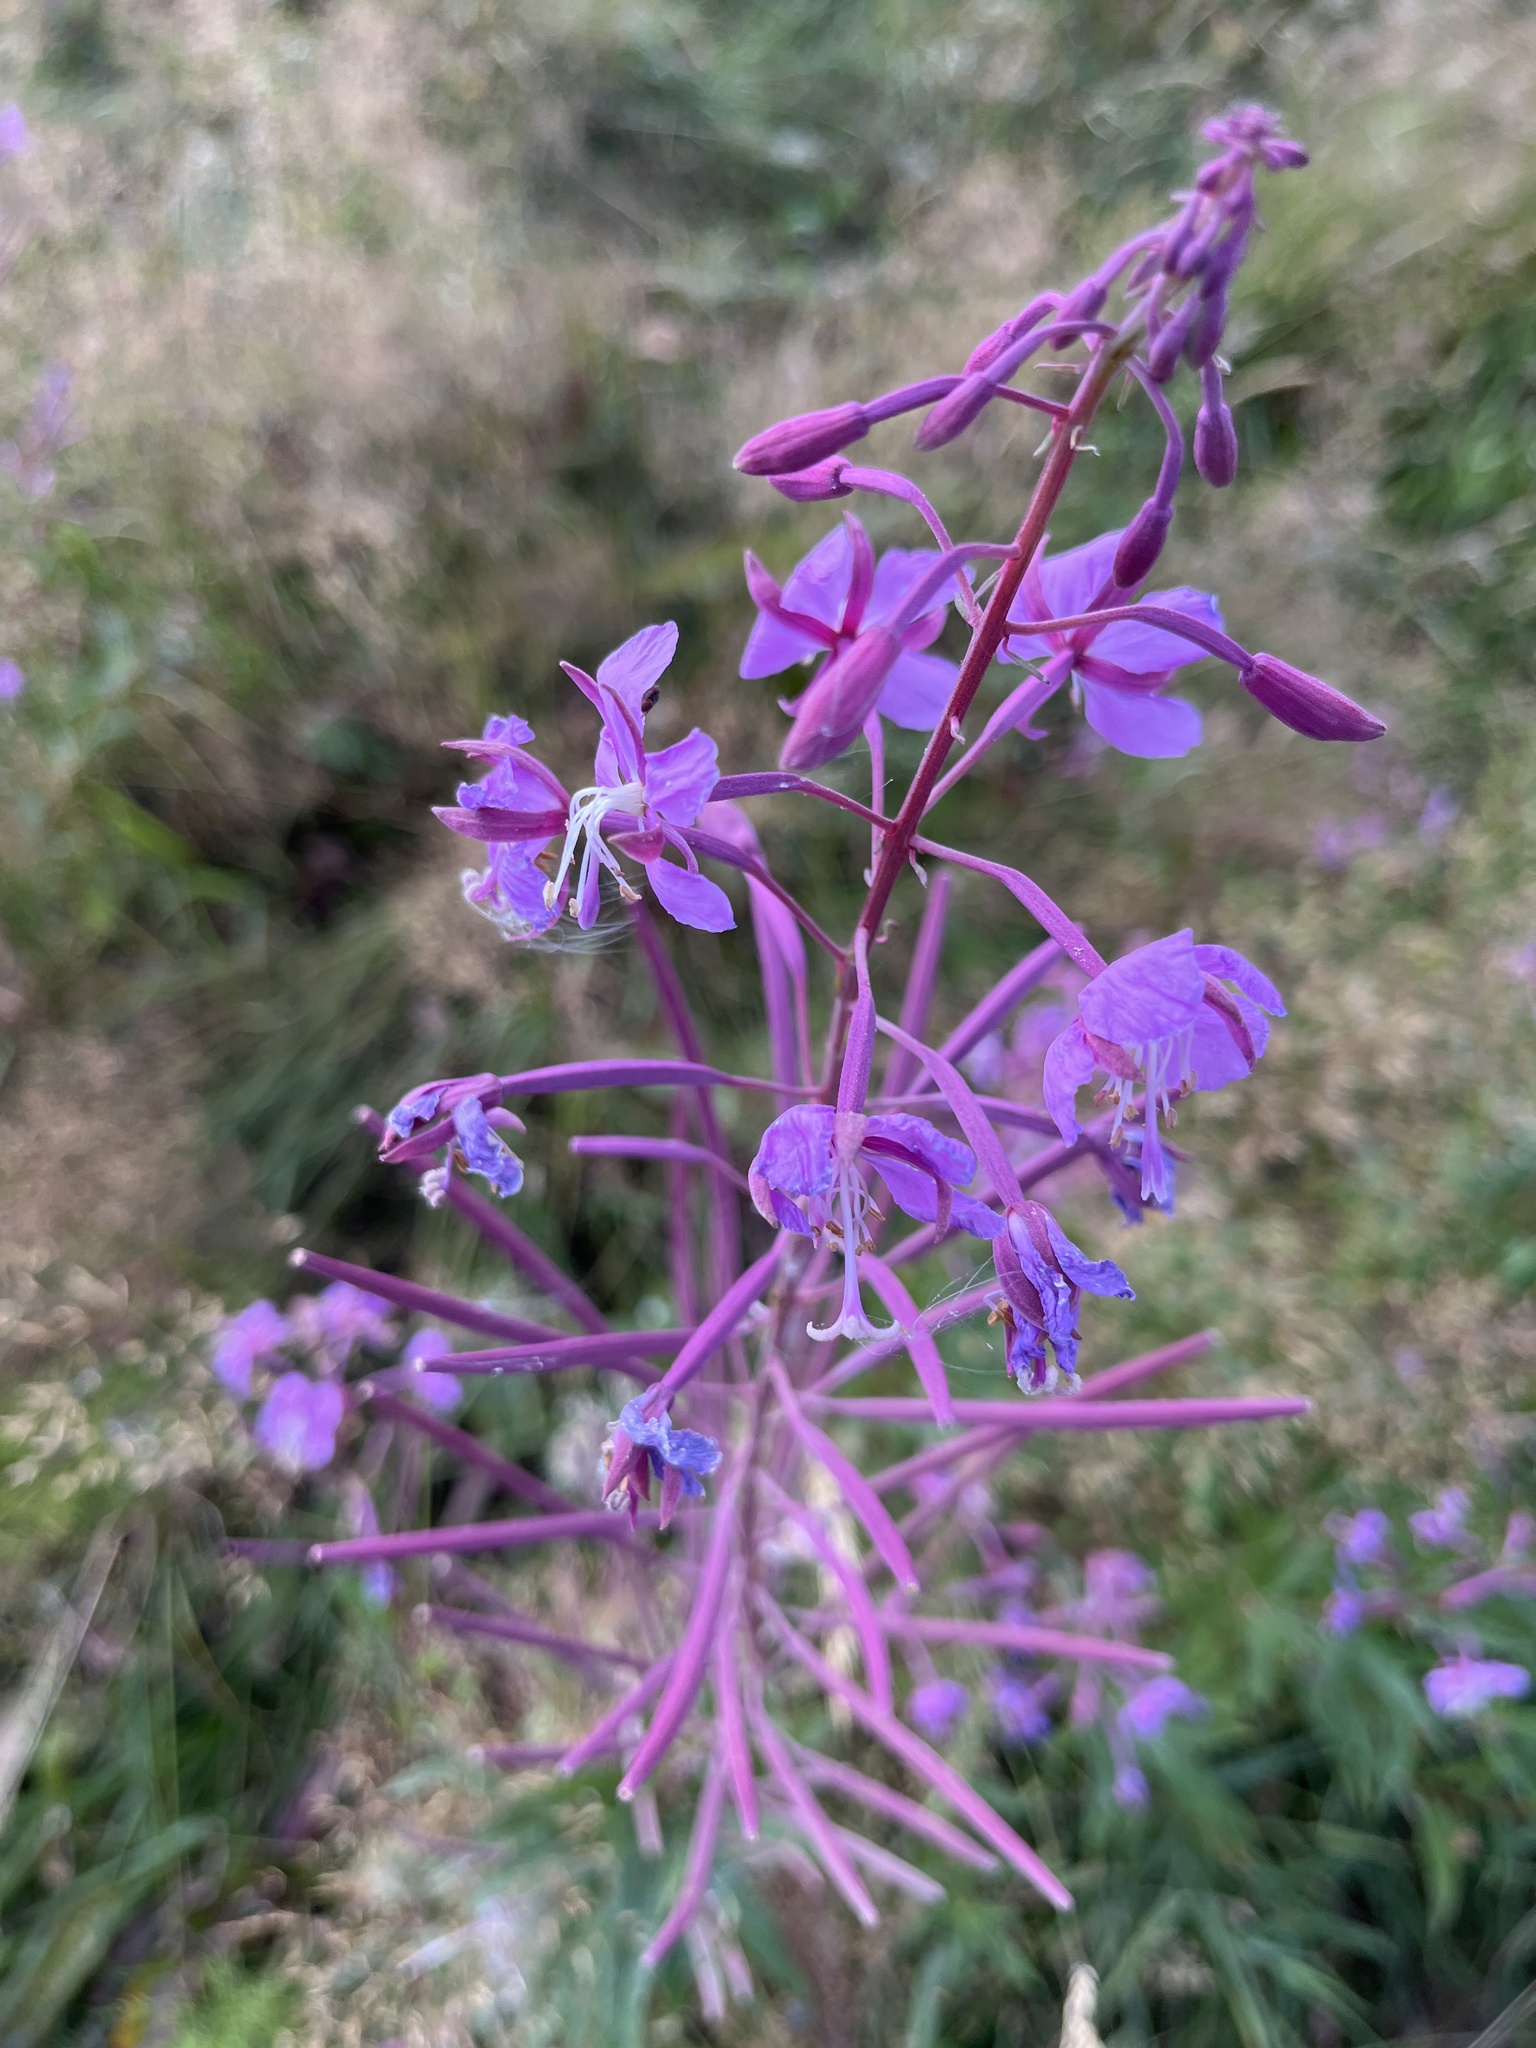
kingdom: Plantae
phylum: Tracheophyta
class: Magnoliopsida
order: Myrtales
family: Onagraceae
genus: Chamaenerion
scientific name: Chamaenerion angustifolium
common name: Fireweed
